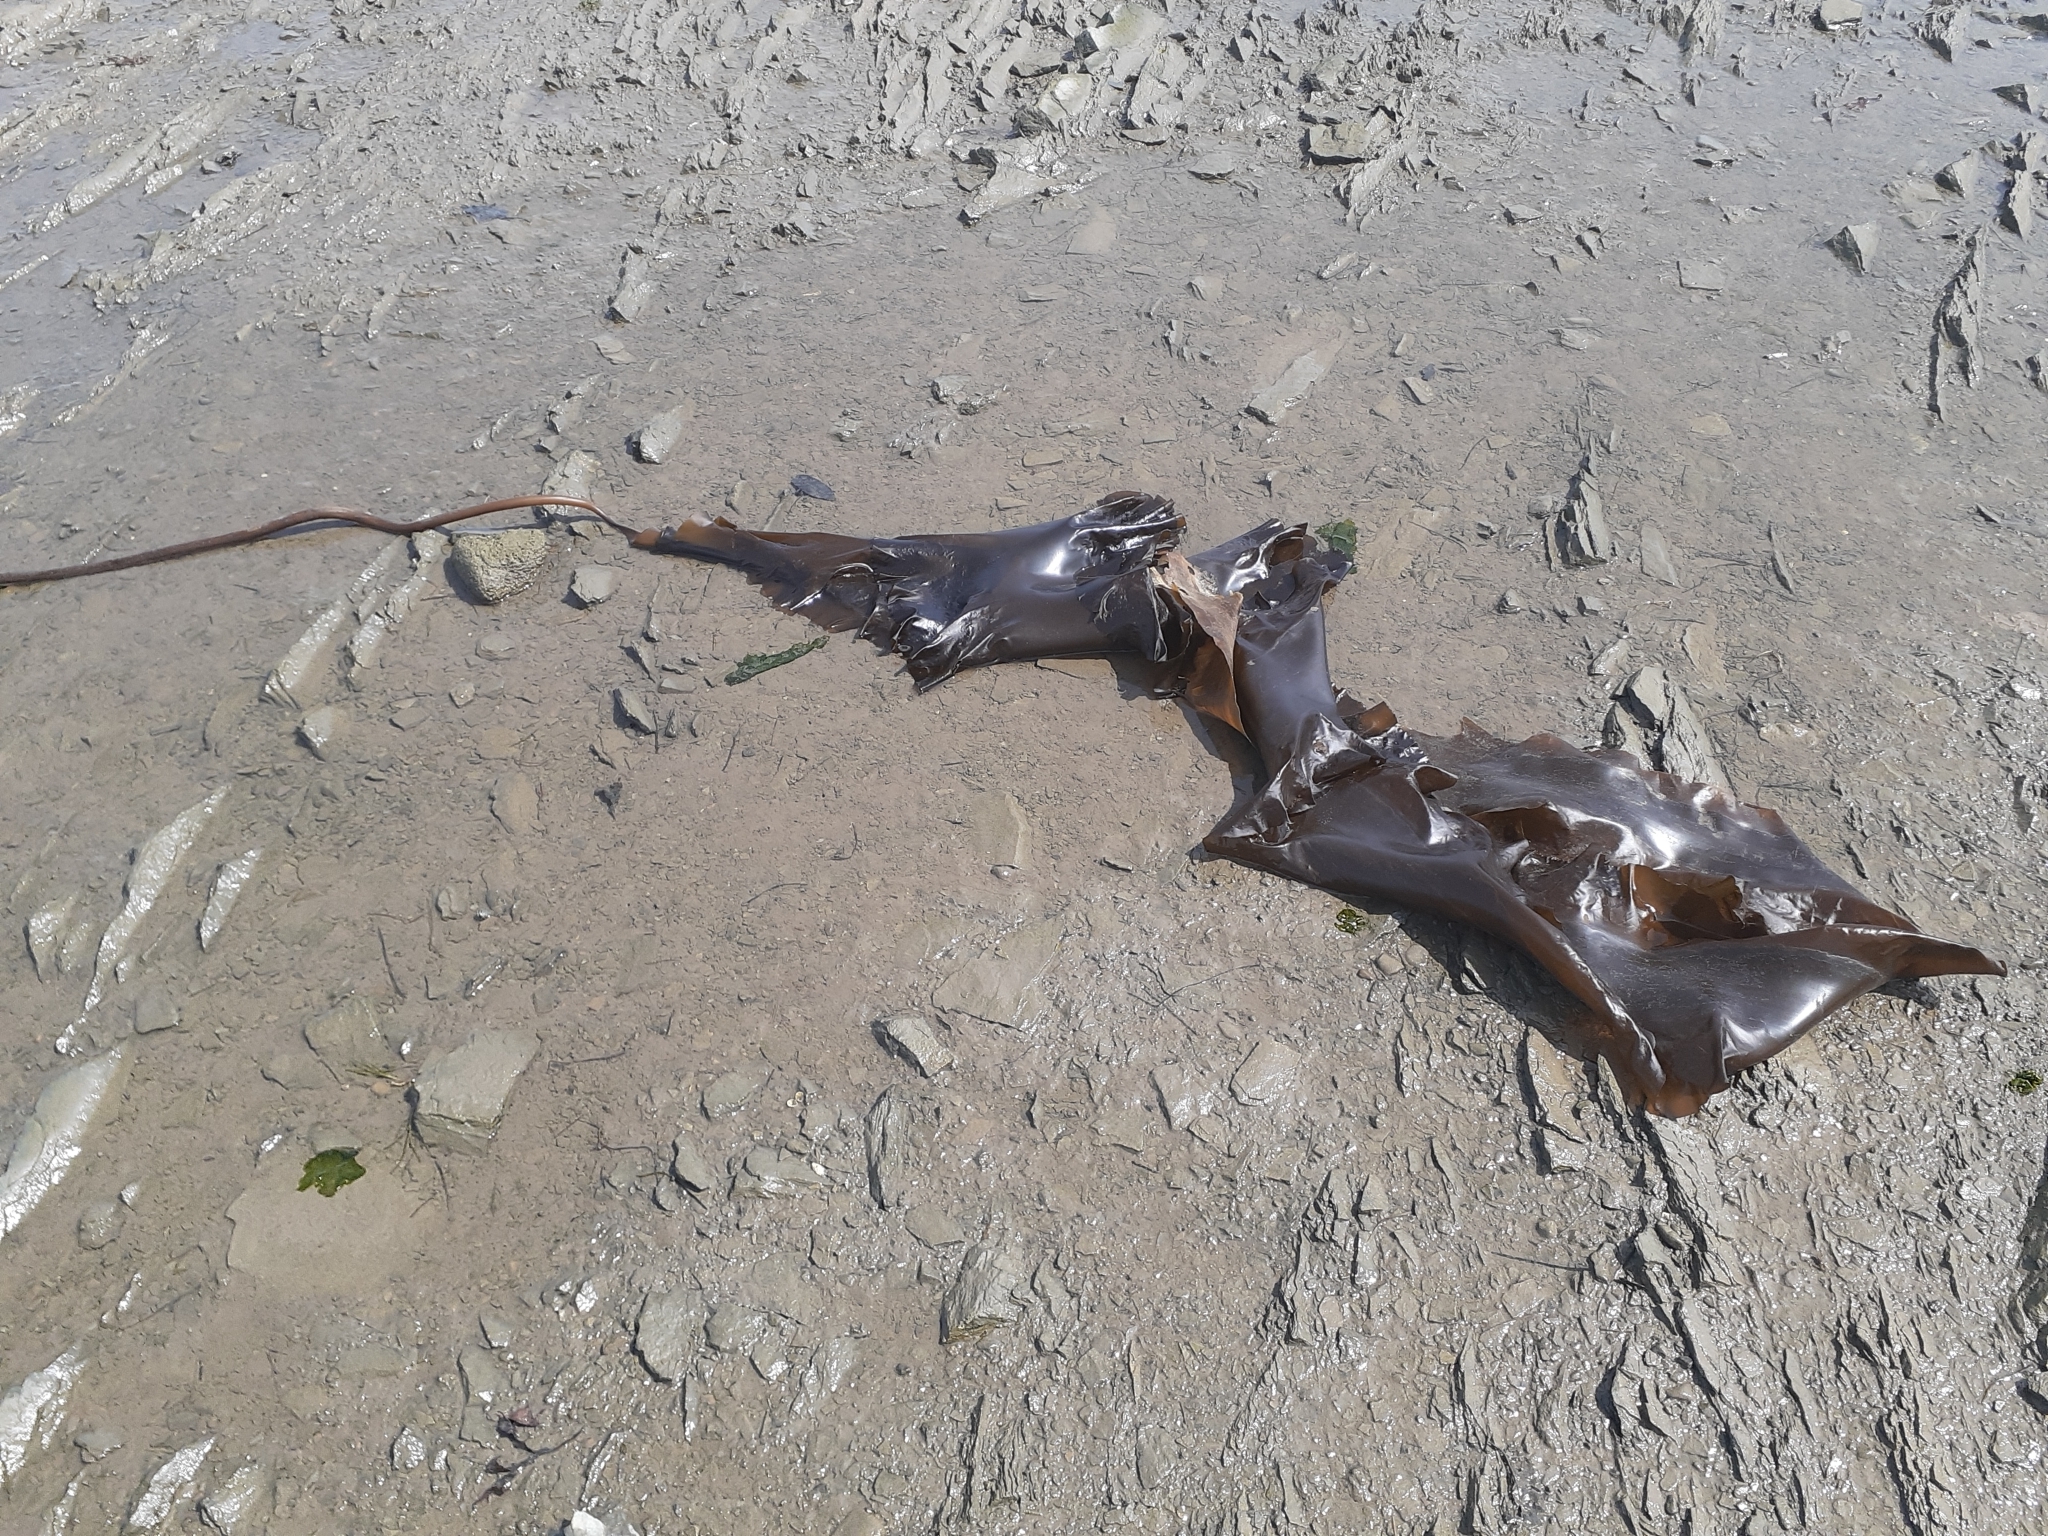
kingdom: Chromista
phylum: Ochrophyta
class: Phaeophyceae
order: Laminariales
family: Laminariaceae
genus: Saccharina
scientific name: Saccharina longicruris
